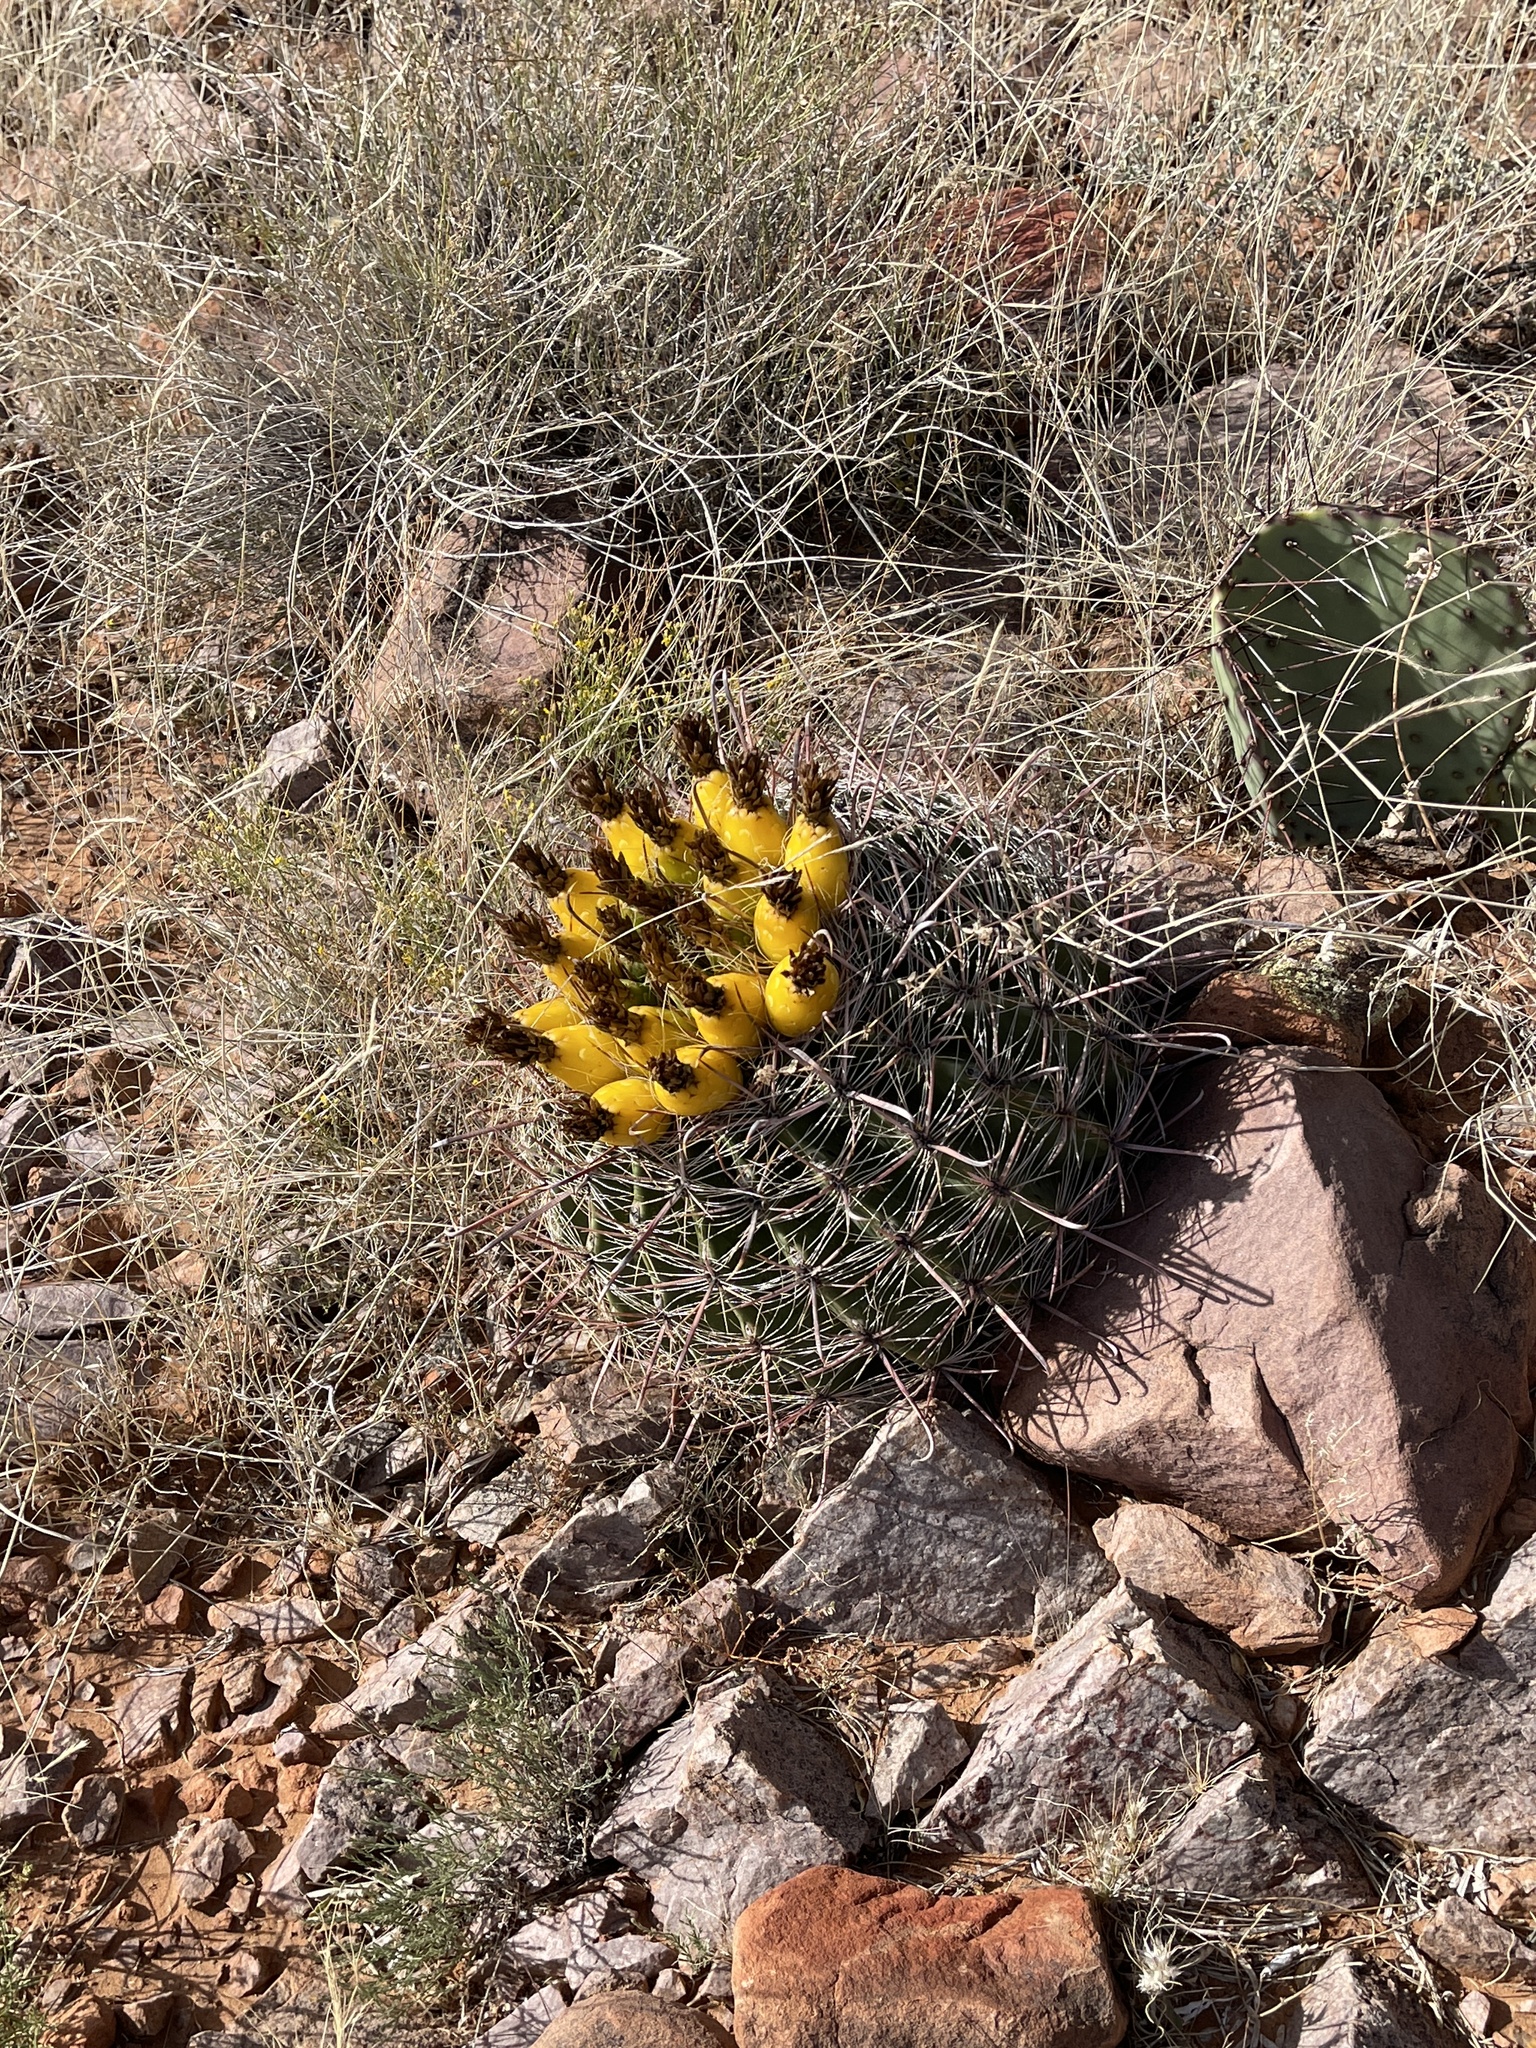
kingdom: Plantae
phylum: Tracheophyta
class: Magnoliopsida
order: Caryophyllales
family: Cactaceae
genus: Ferocactus
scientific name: Ferocactus wislizeni
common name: Candy barrel cactus
